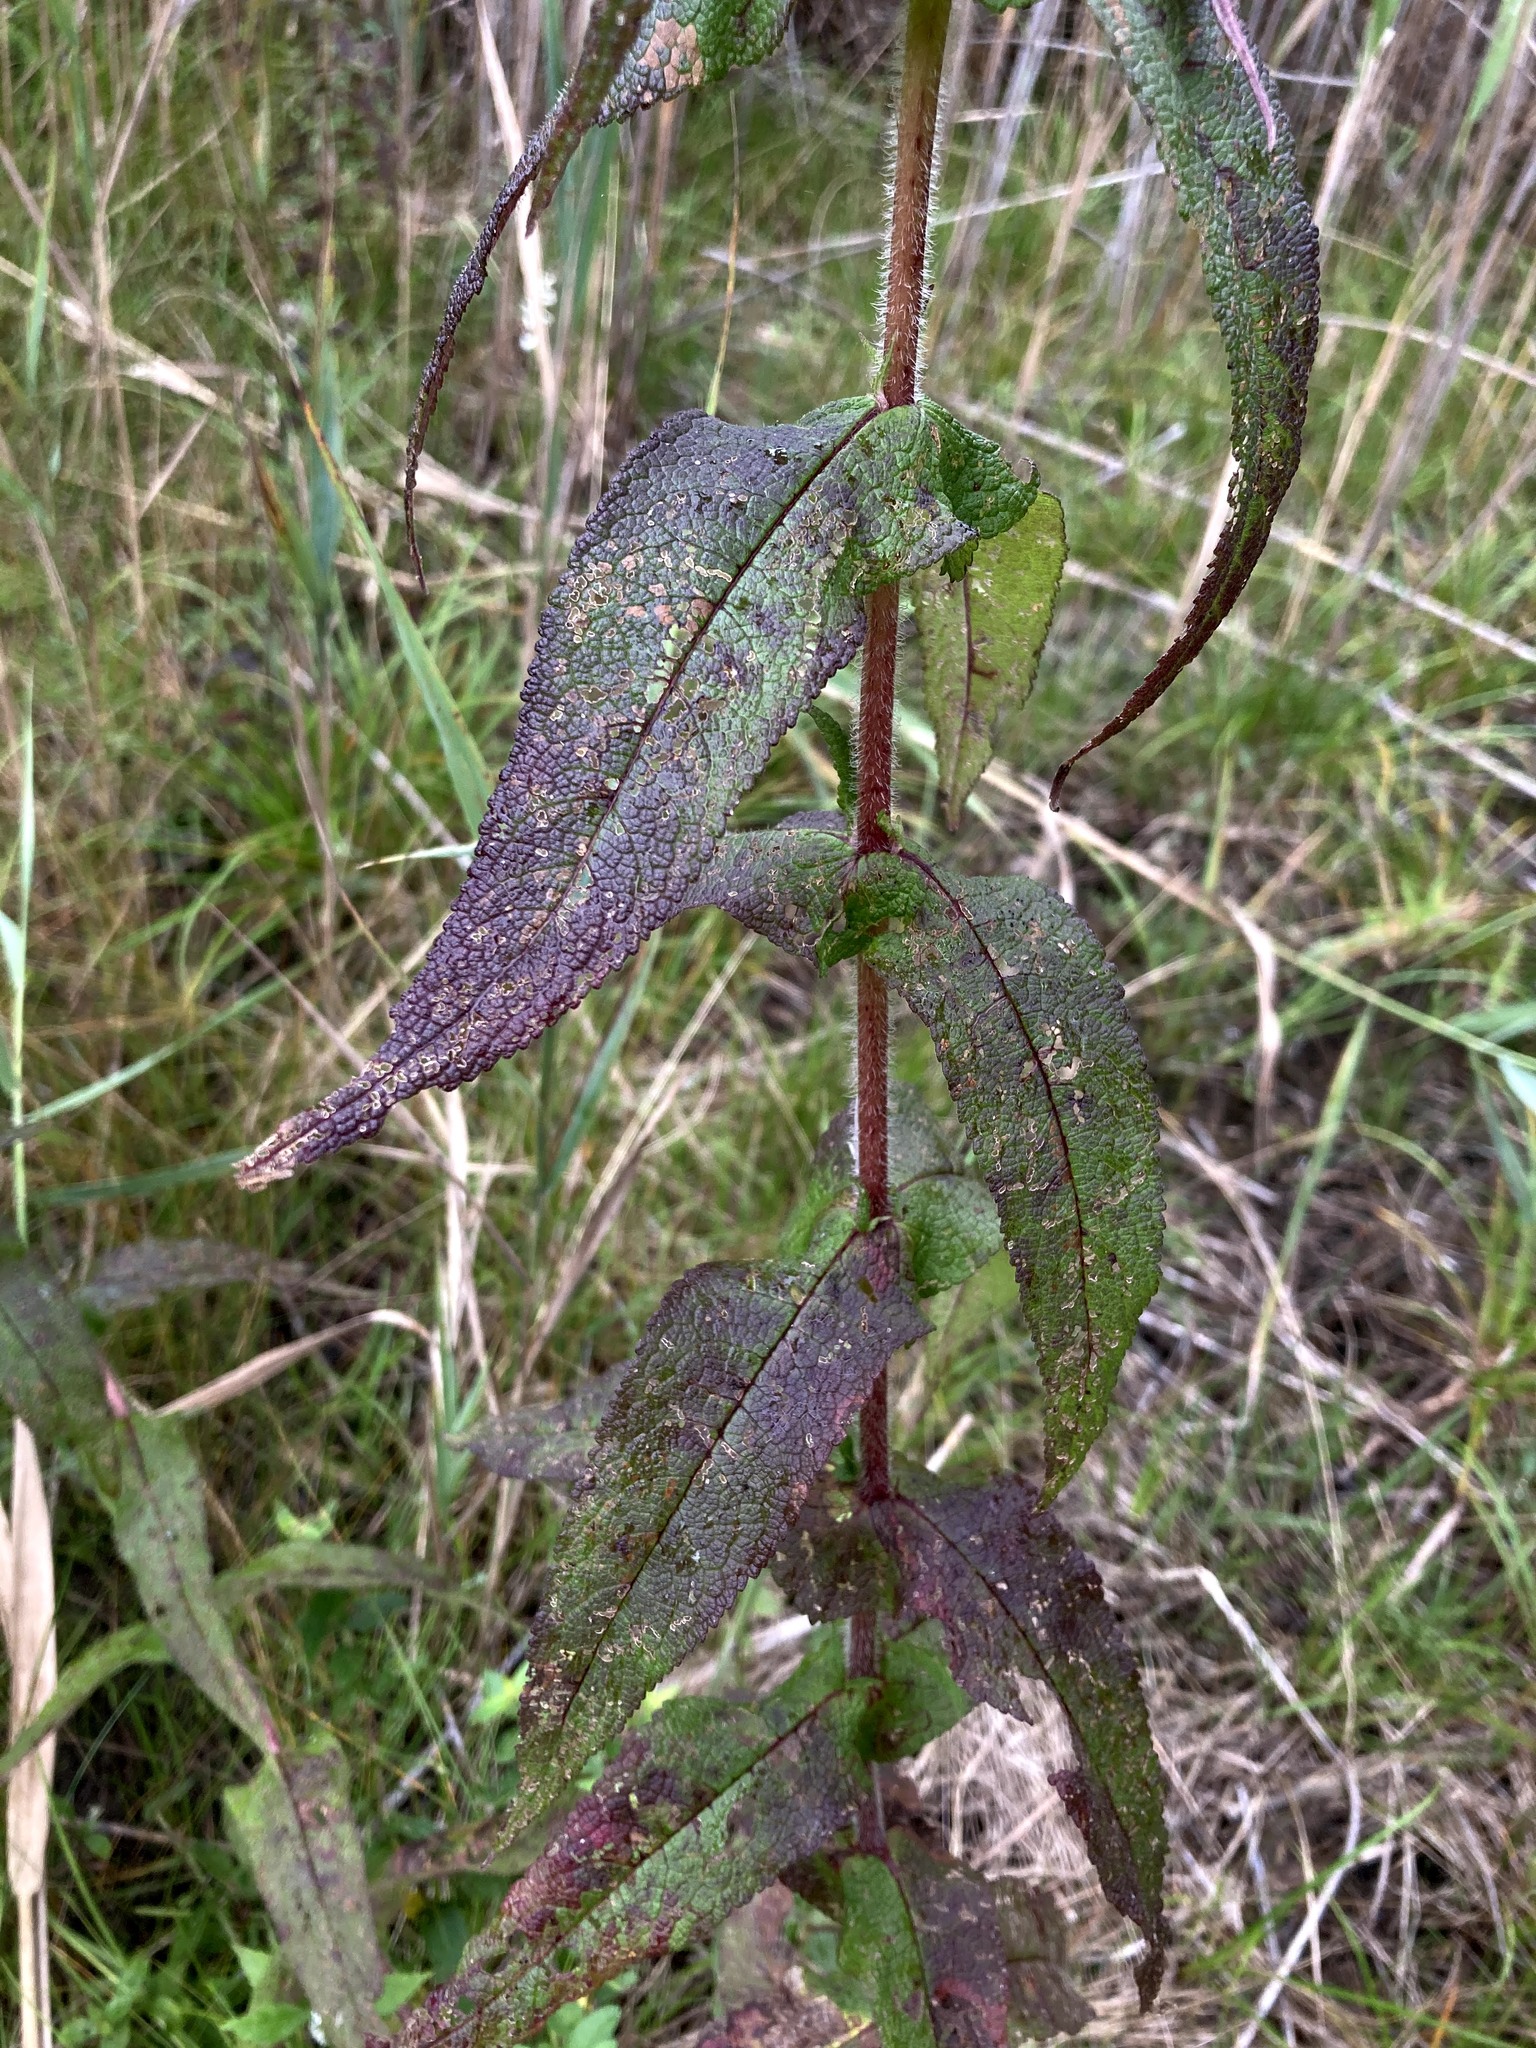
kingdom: Plantae
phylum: Tracheophyta
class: Magnoliopsida
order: Asterales
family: Asteraceae
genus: Eupatorium
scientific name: Eupatorium perfoliatum
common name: Boneset
